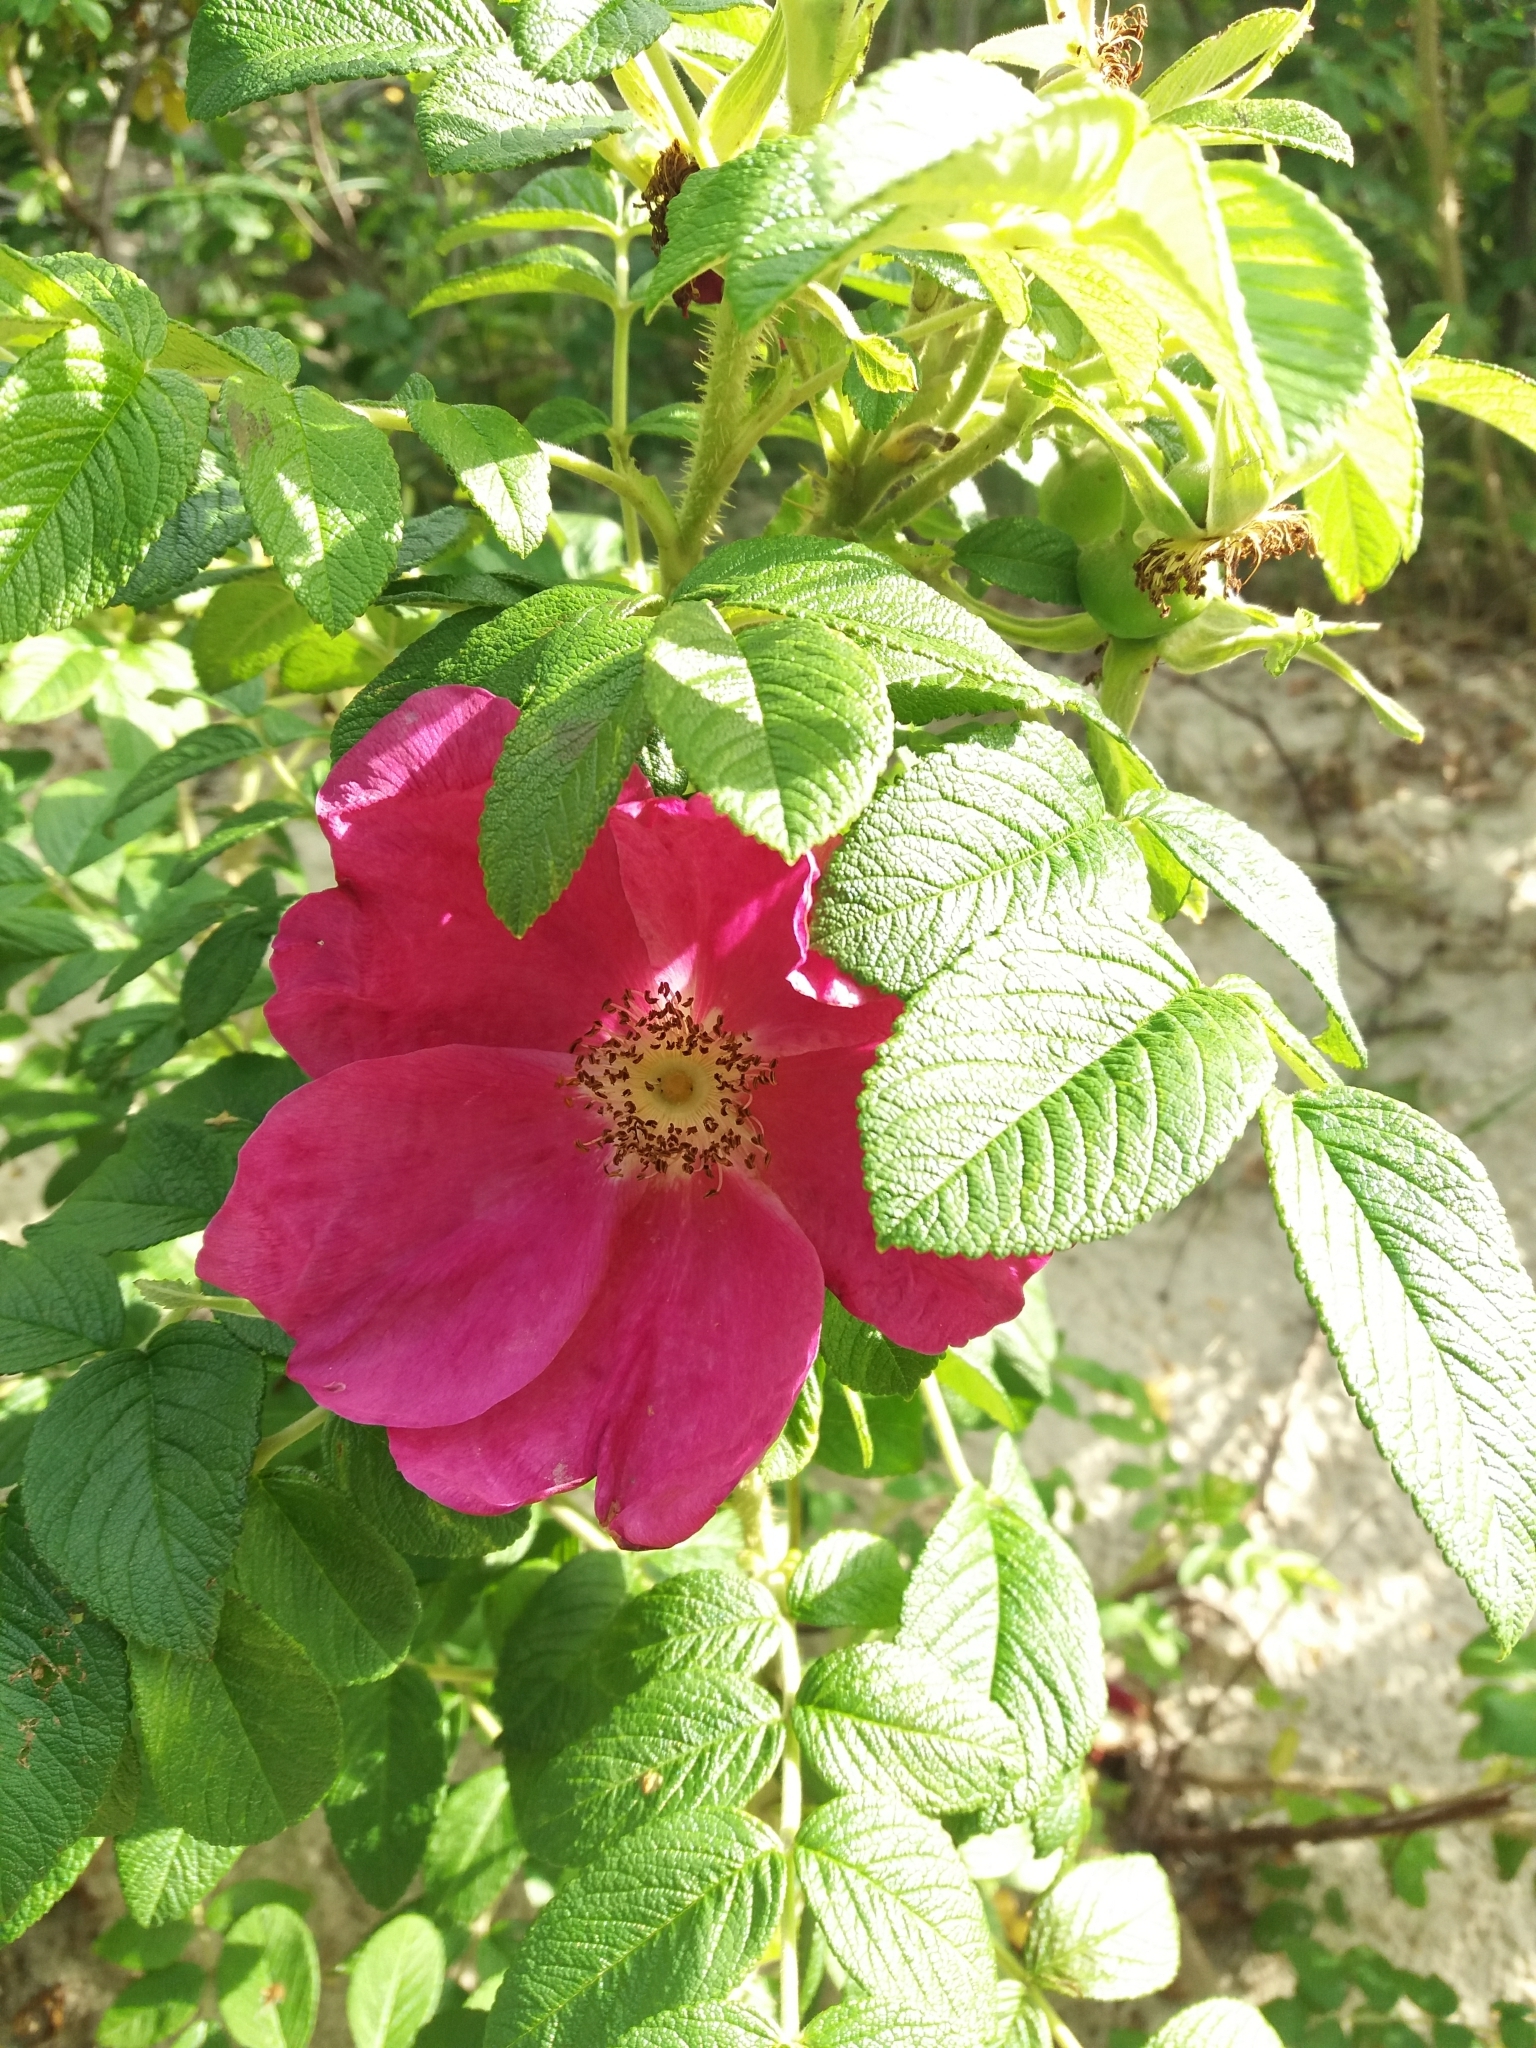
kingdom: Plantae
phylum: Tracheophyta
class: Magnoliopsida
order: Rosales
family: Rosaceae
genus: Rosa
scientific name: Rosa rugosa
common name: Japanese rose
